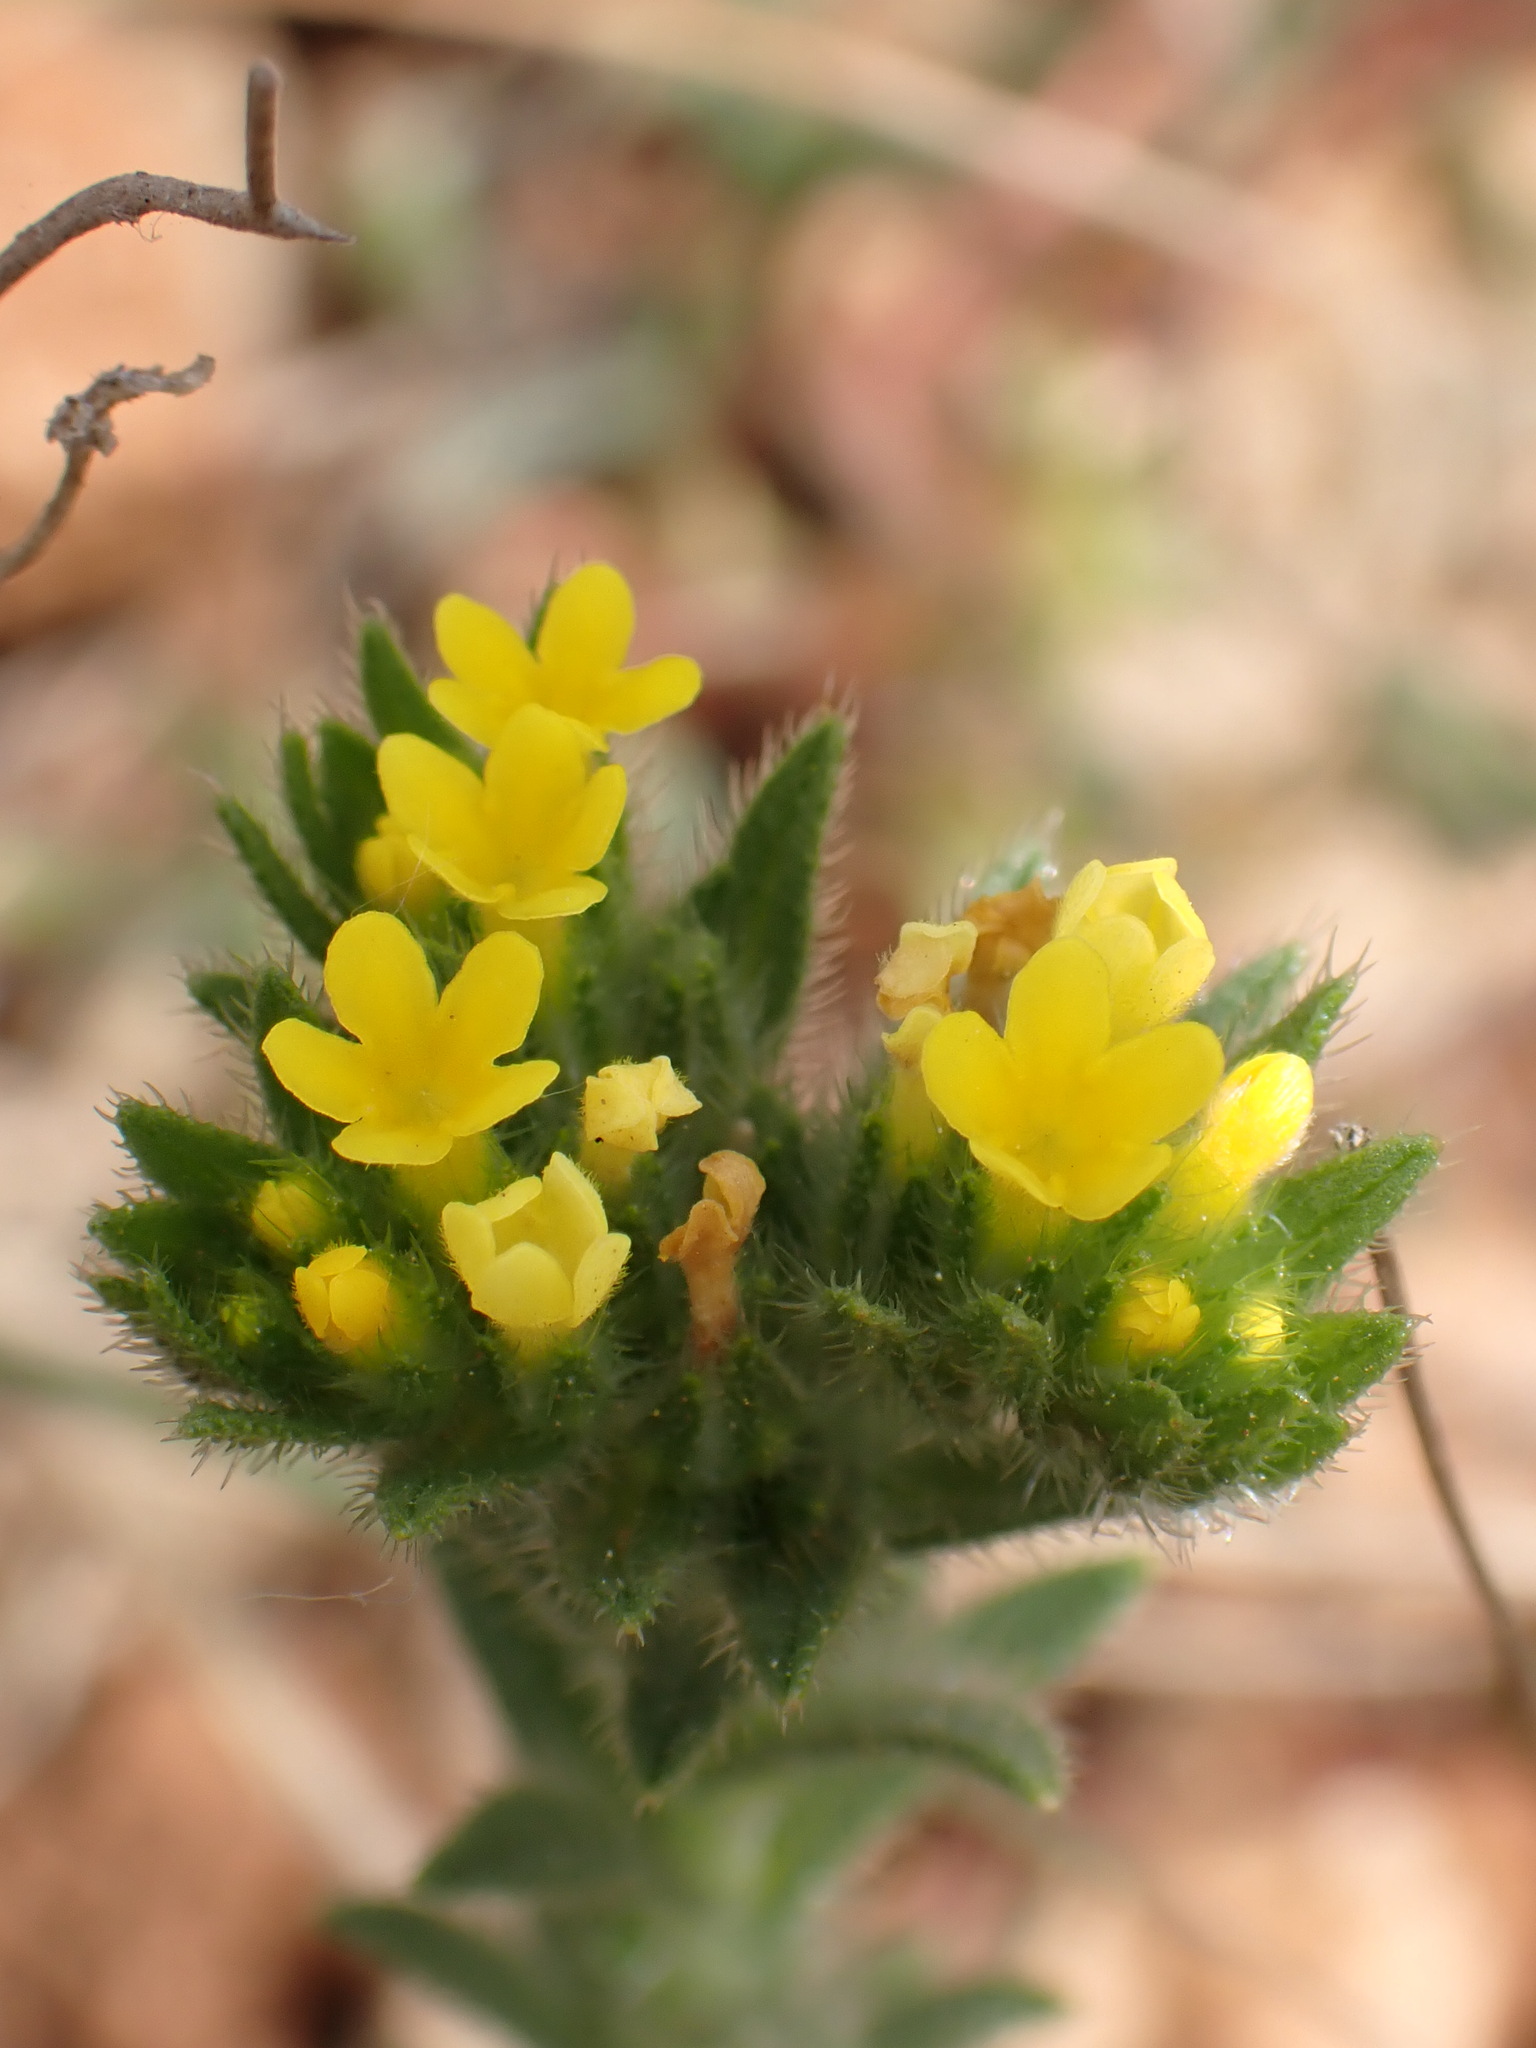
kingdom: Plantae
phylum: Tracheophyta
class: Magnoliopsida
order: Boraginales
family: Boraginaceae
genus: Neatostema
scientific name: Neatostema apulum
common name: Hairy sheepweed
